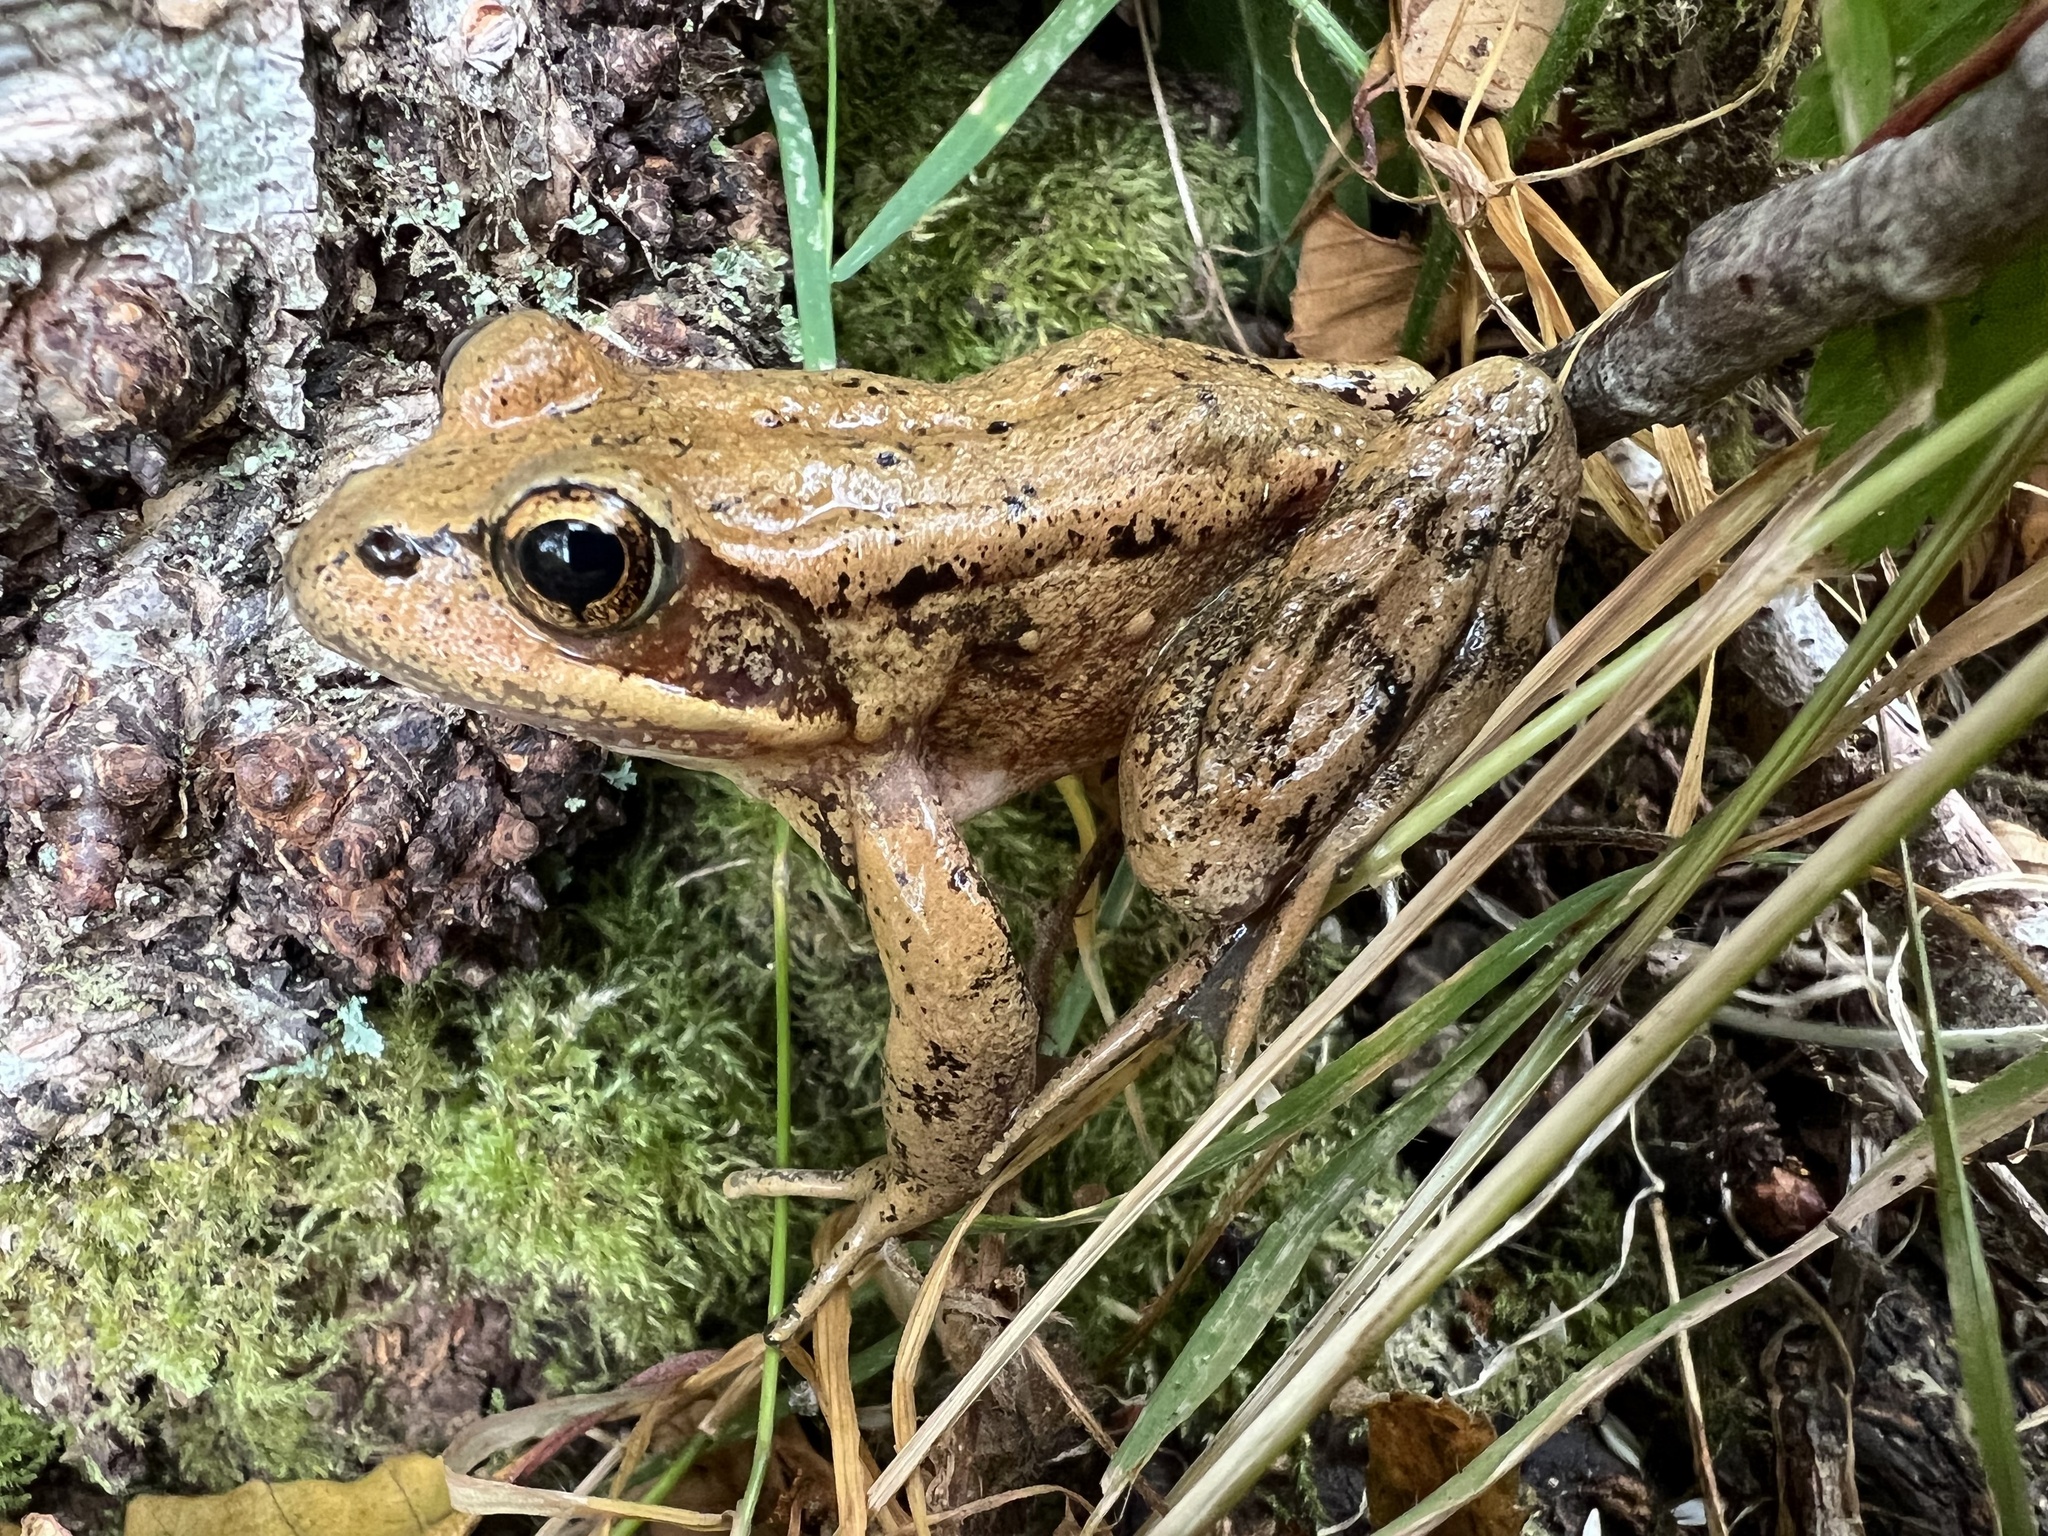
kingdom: Animalia
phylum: Chordata
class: Amphibia
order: Anura
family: Ranidae
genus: Rana
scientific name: Rana aurora
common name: Red-legged frog
